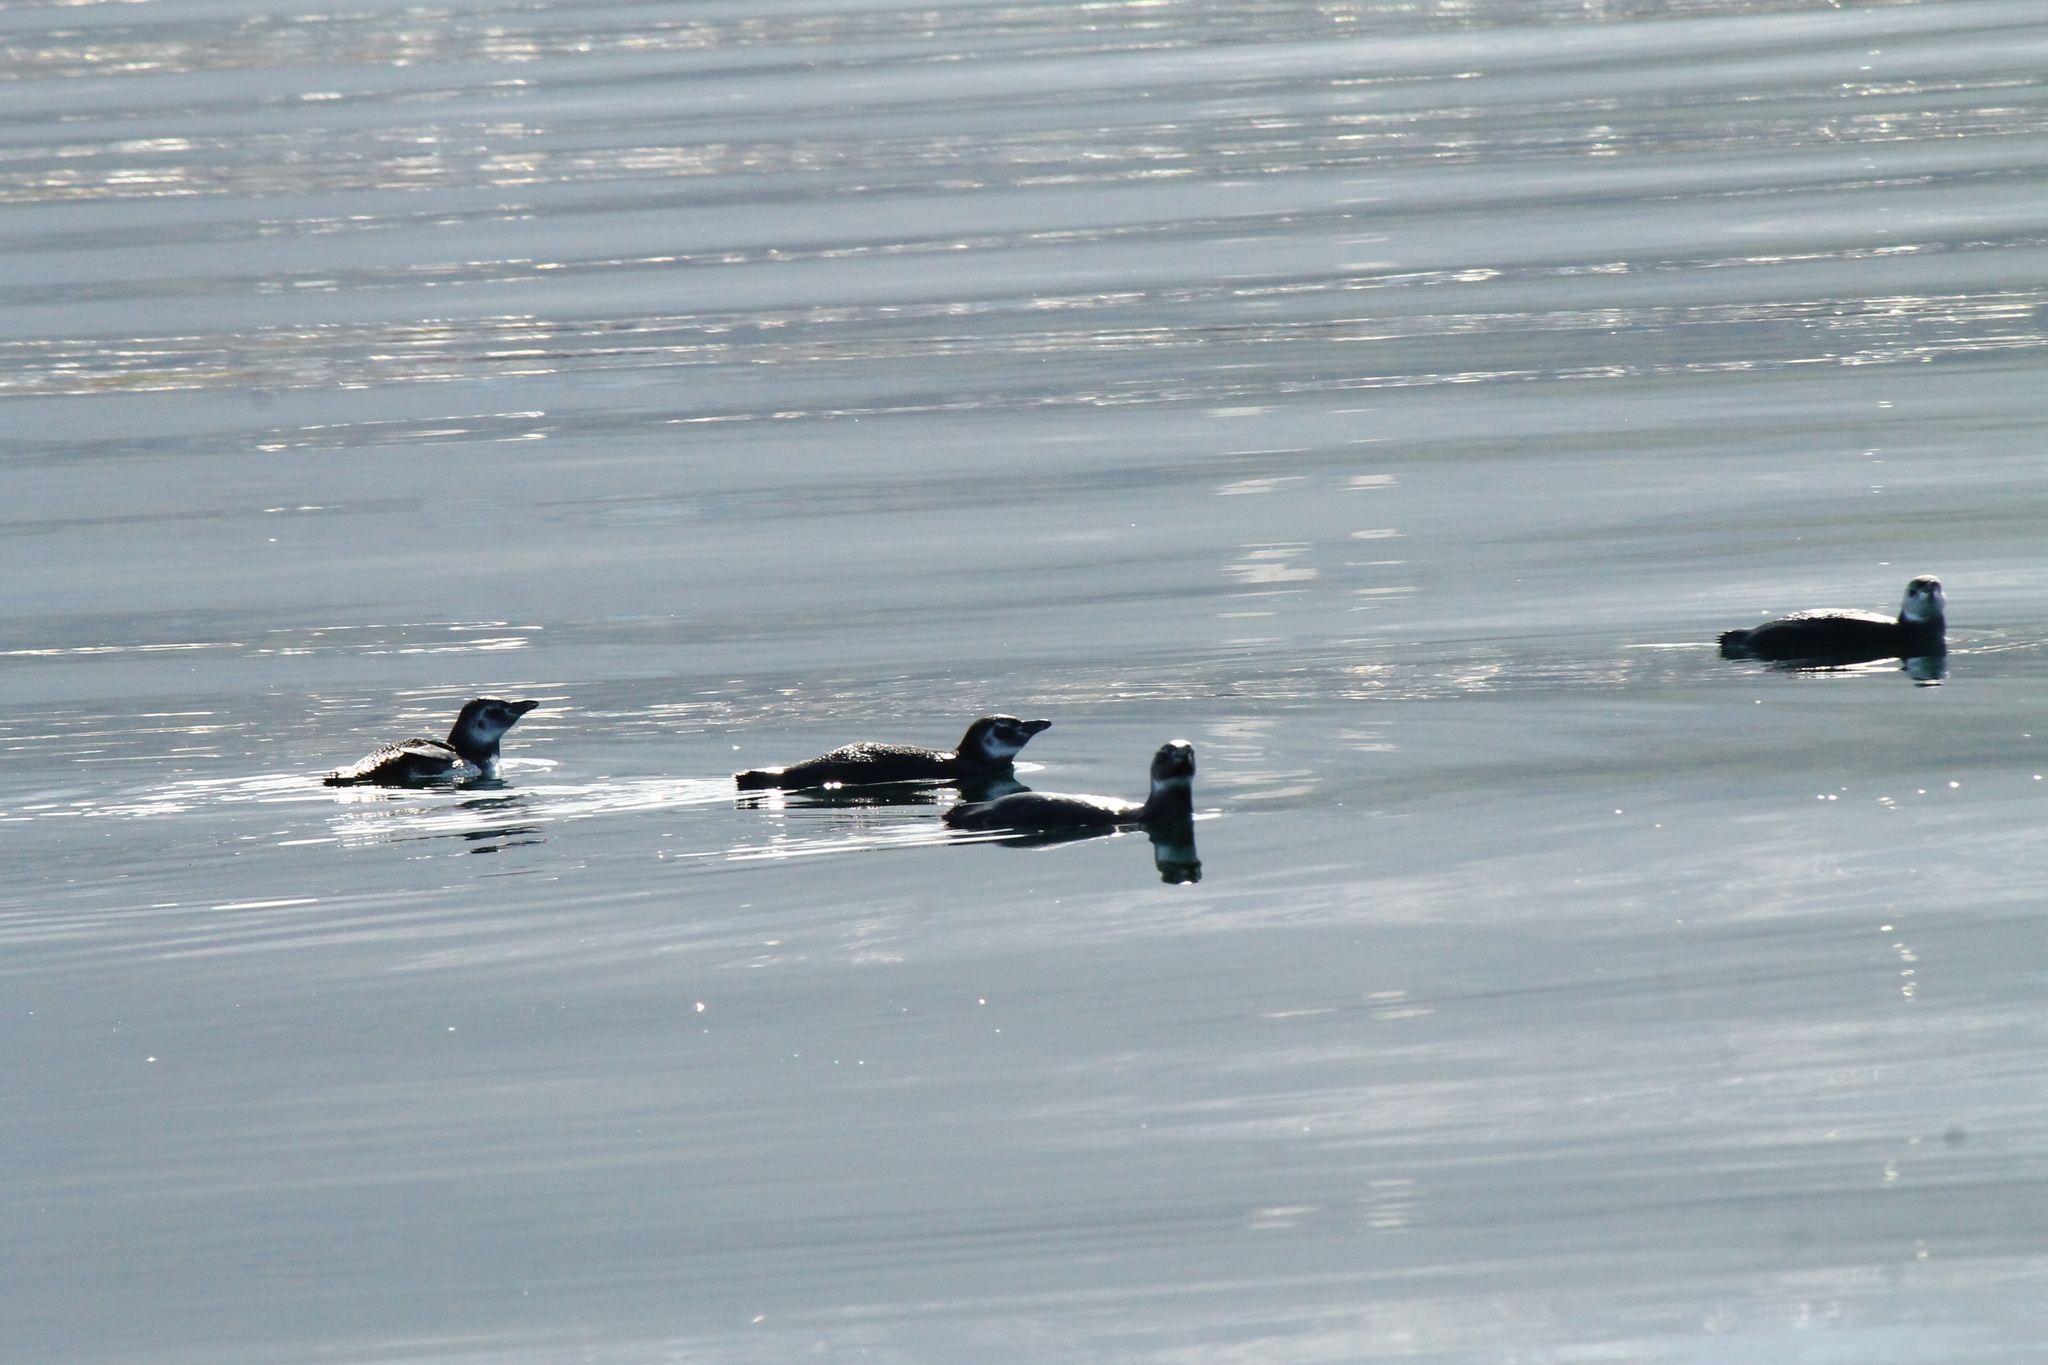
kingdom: Animalia
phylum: Chordata
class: Aves
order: Sphenisciformes
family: Spheniscidae
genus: Spheniscus
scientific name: Spheniscus magellanicus
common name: Magellanic penguin
